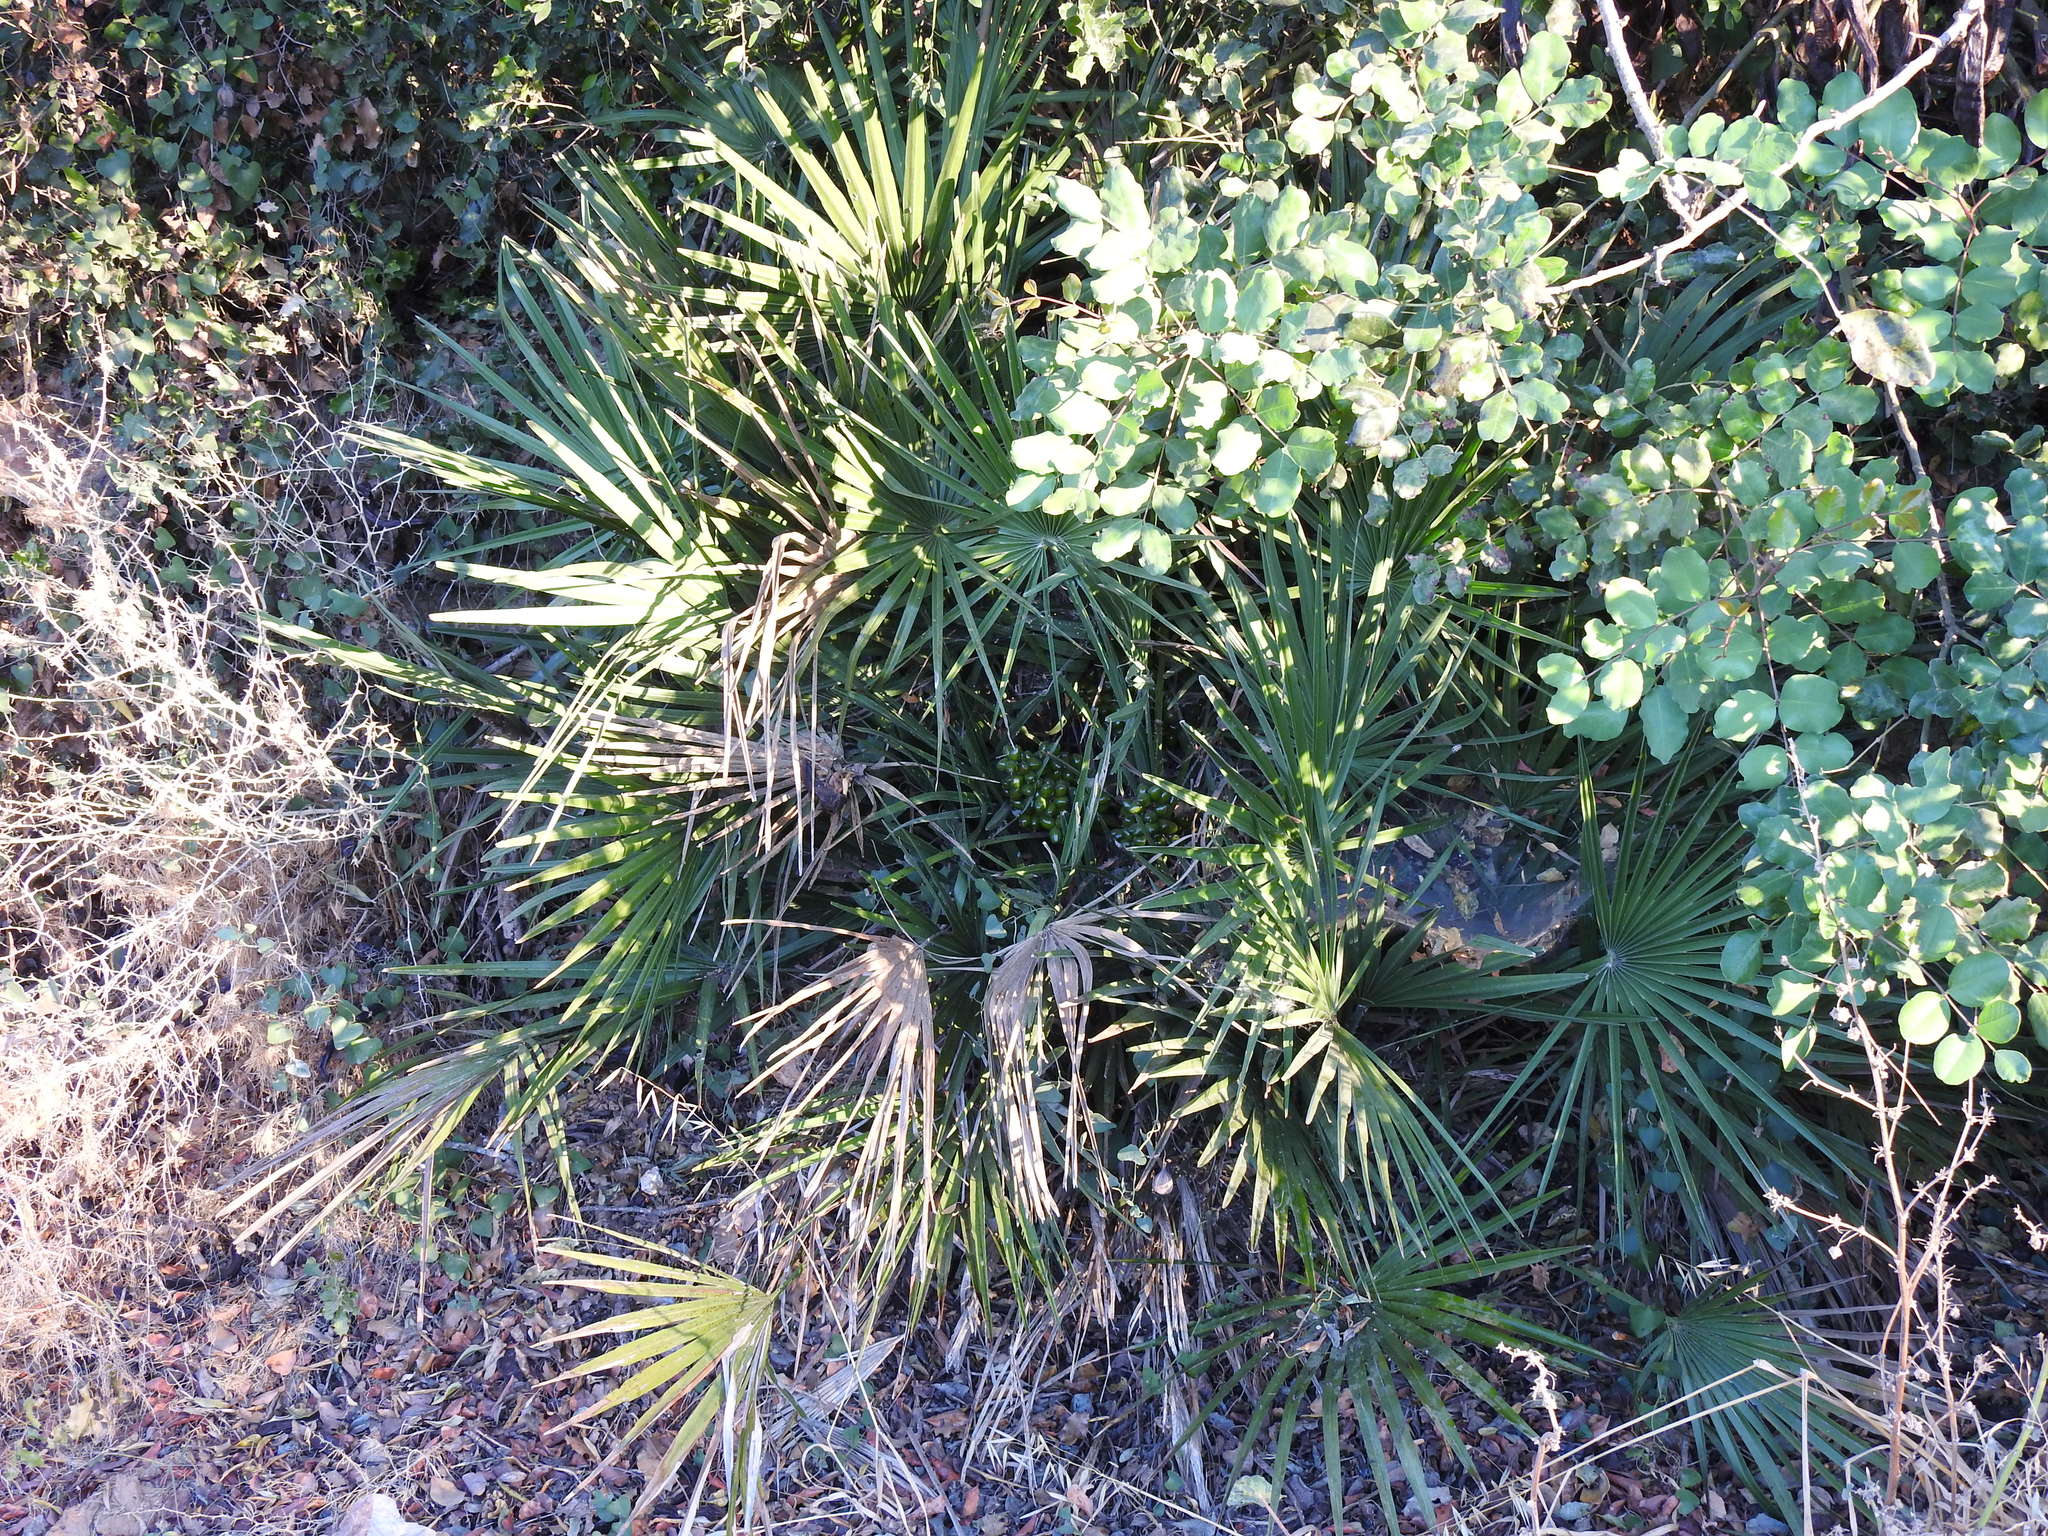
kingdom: Plantae
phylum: Tracheophyta
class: Liliopsida
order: Arecales
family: Arecaceae
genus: Chamaerops
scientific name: Chamaerops humilis
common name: Dwarf fan palm
